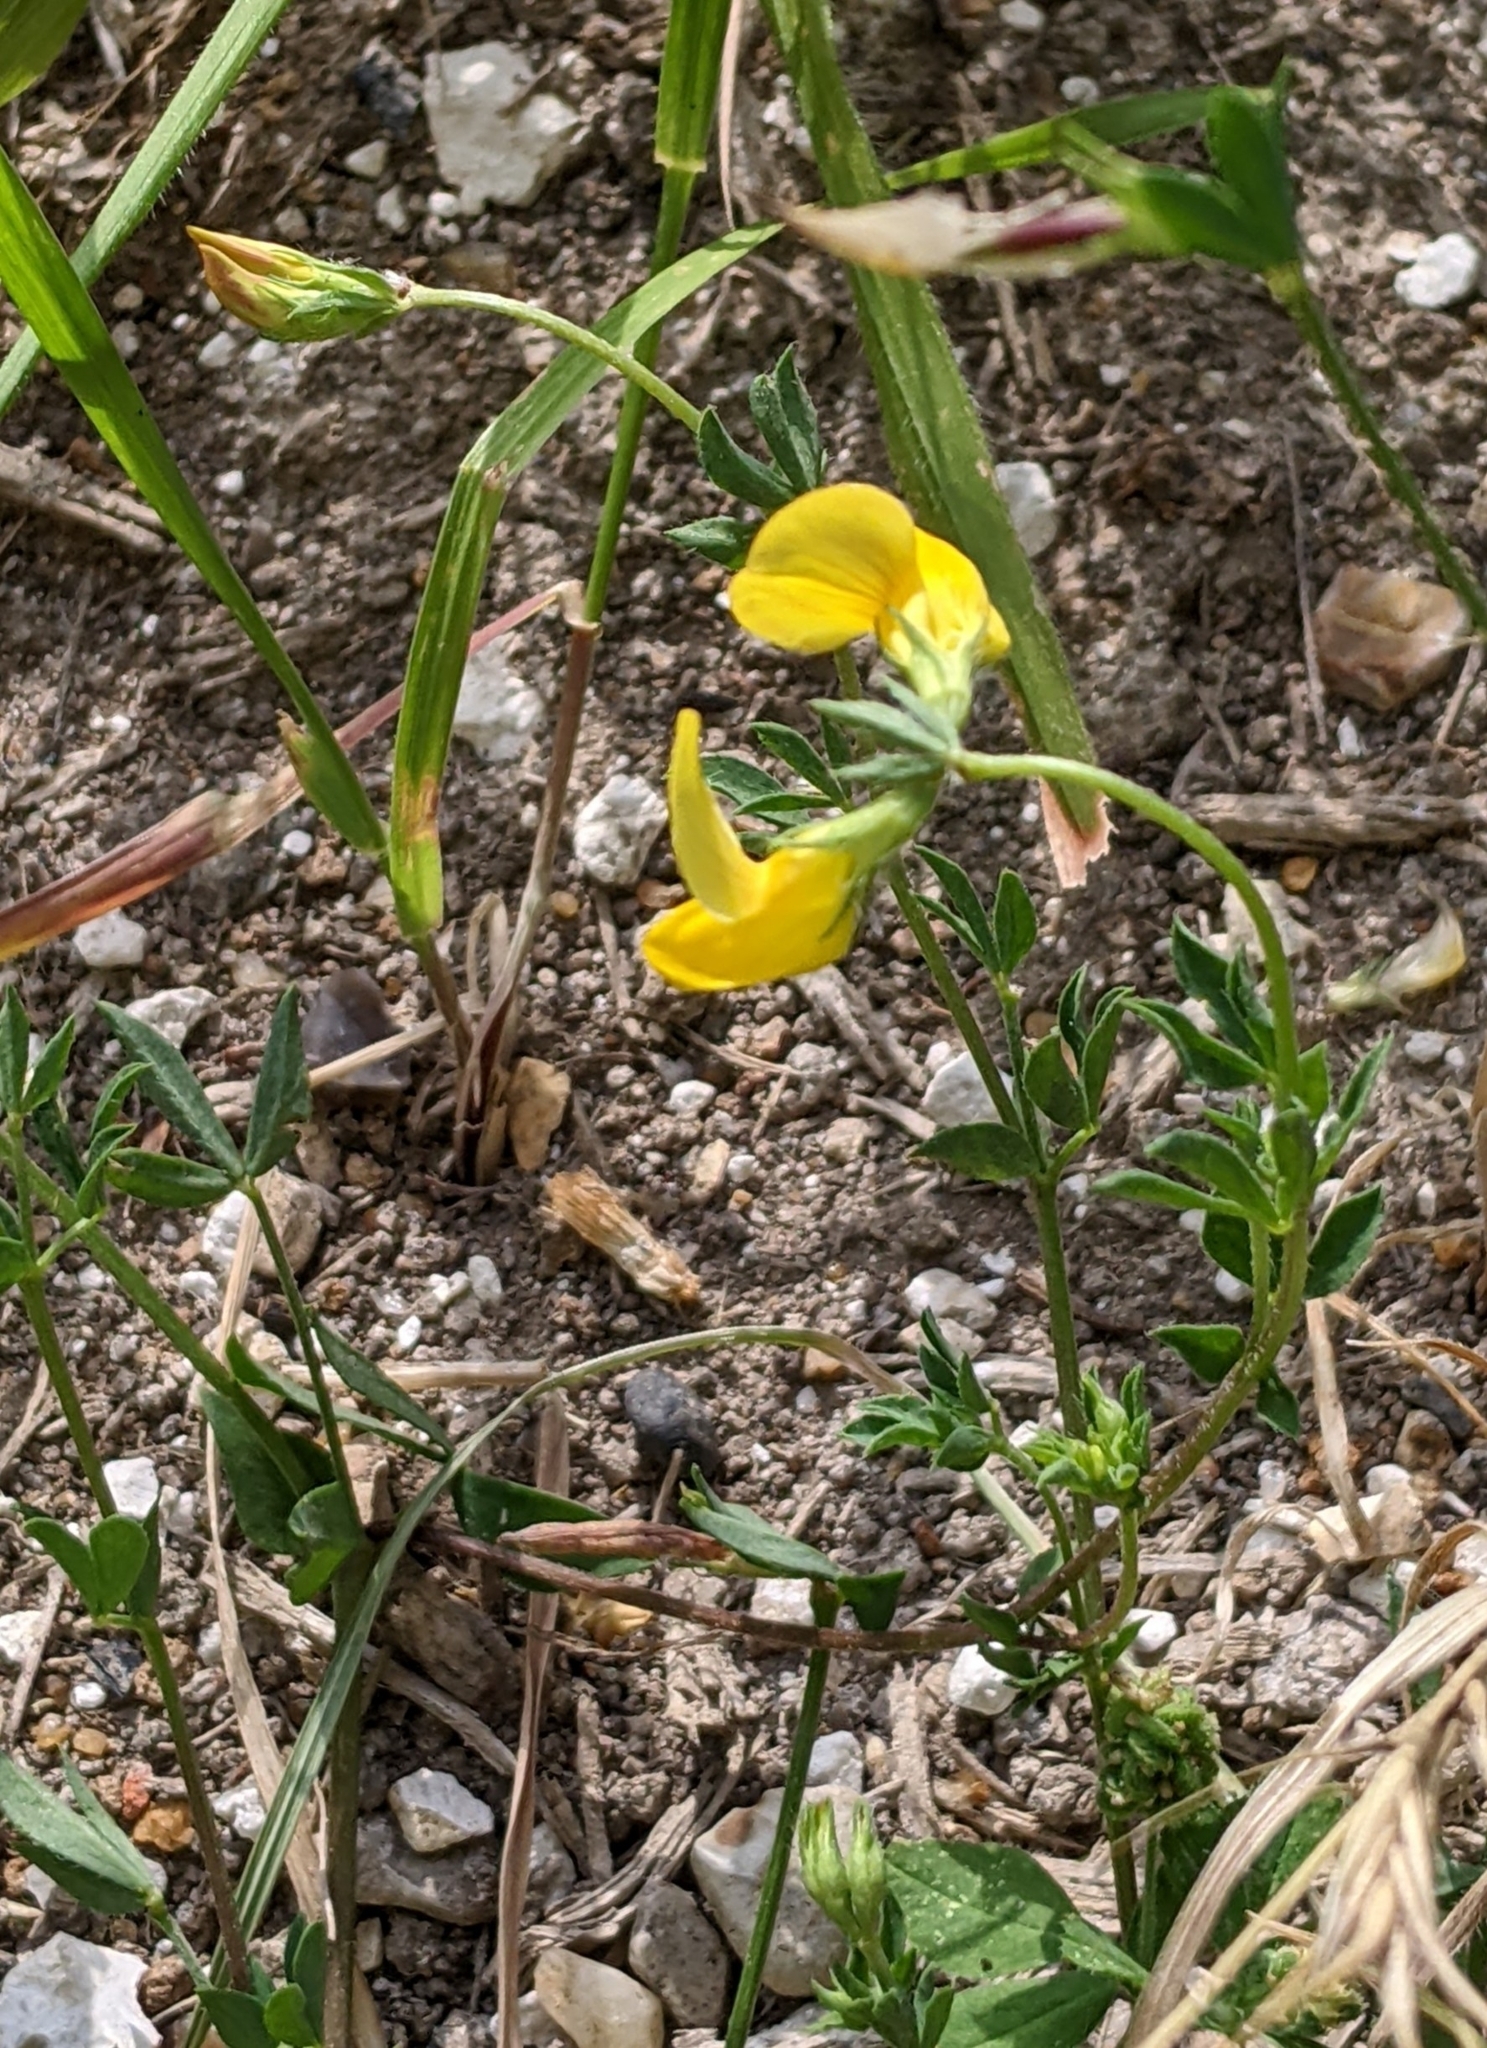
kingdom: Plantae
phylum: Tracheophyta
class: Magnoliopsida
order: Fabales
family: Fabaceae
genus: Lotus
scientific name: Lotus corniculatus
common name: Common bird's-foot-trefoil
